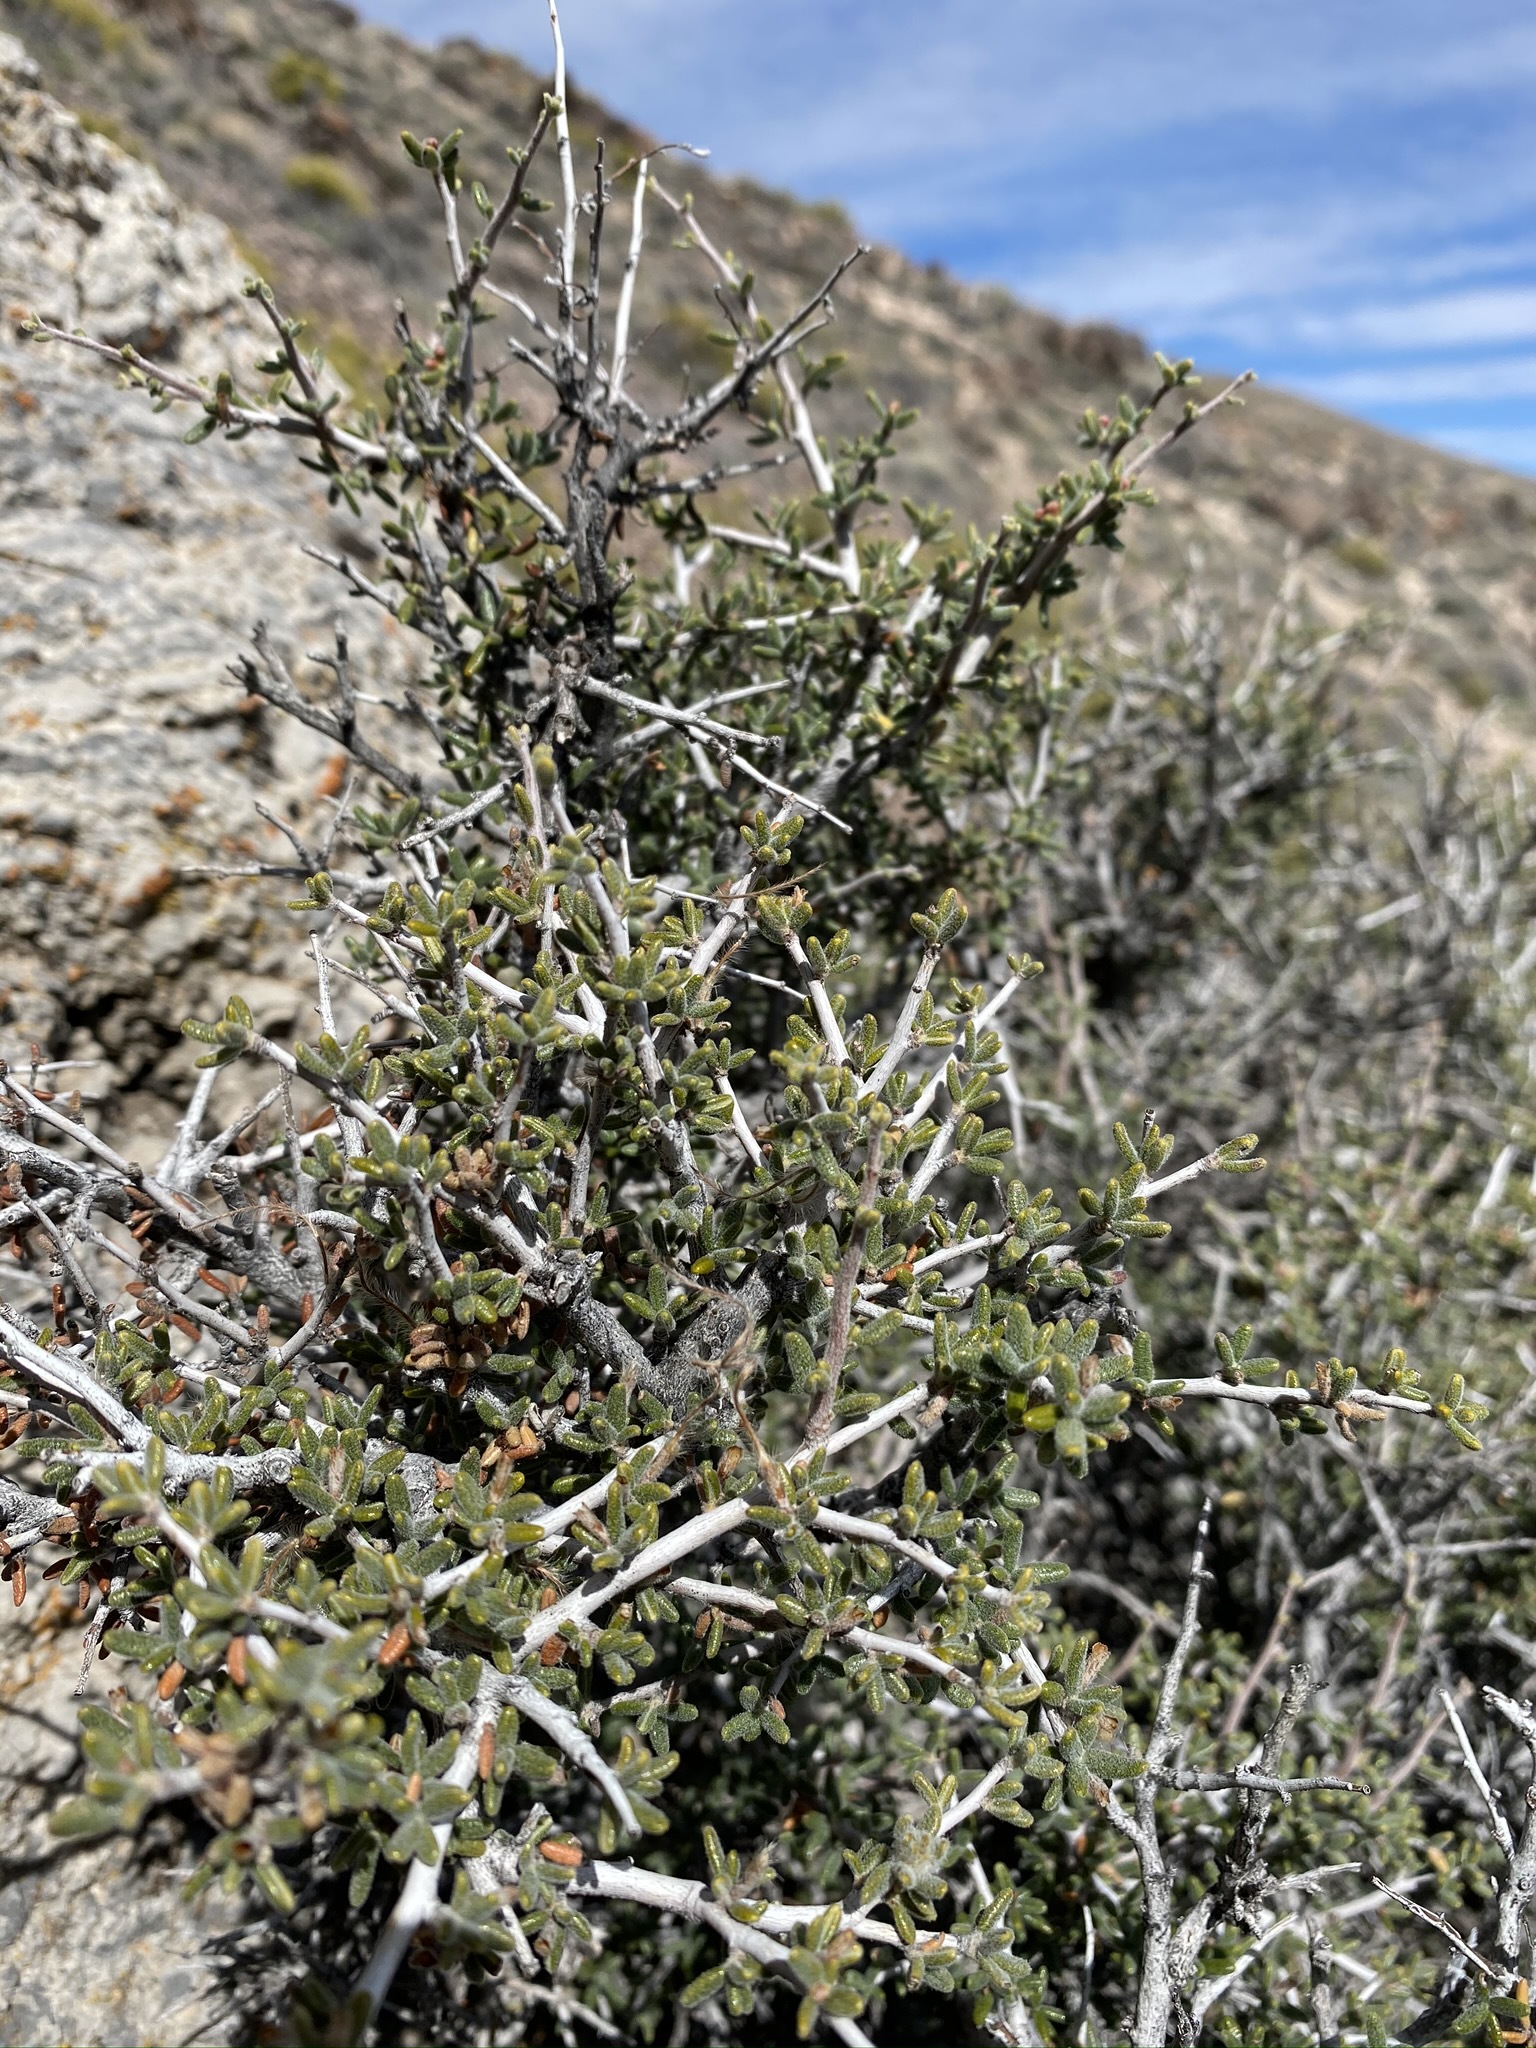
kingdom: Plantae
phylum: Tracheophyta
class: Magnoliopsida
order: Rosales
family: Rosaceae
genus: Cercocarpus
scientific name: Cercocarpus intricatus
